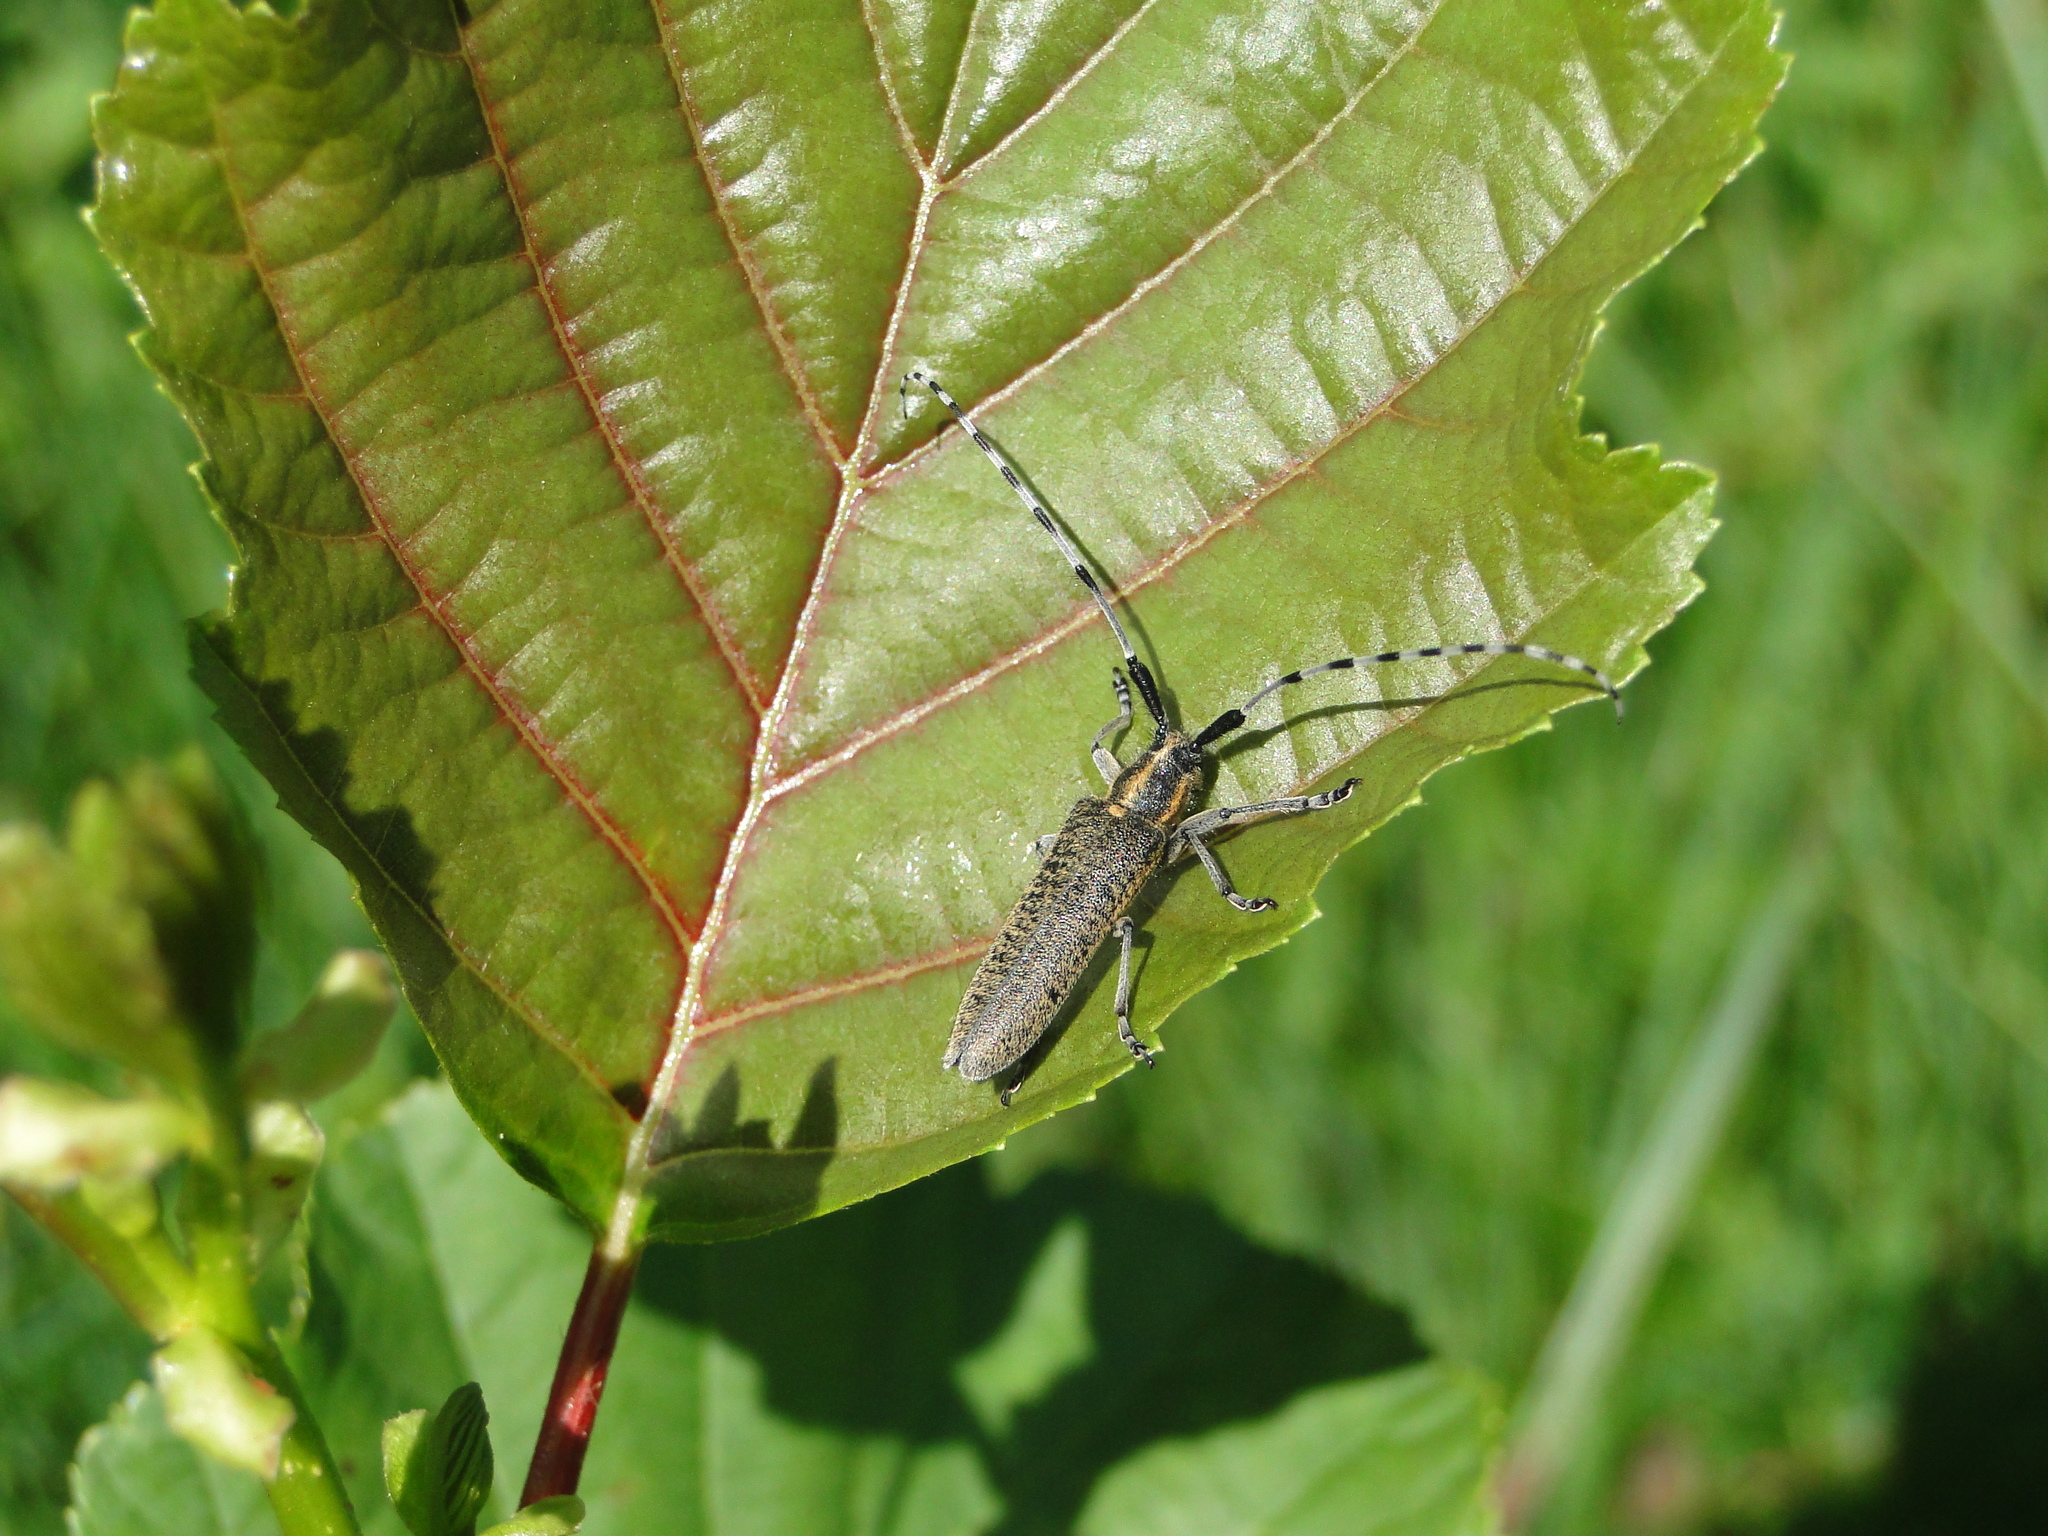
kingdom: Animalia
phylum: Arthropoda
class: Insecta
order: Coleoptera
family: Cerambycidae
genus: Agapanthia
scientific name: Agapanthia villosoviridescens
